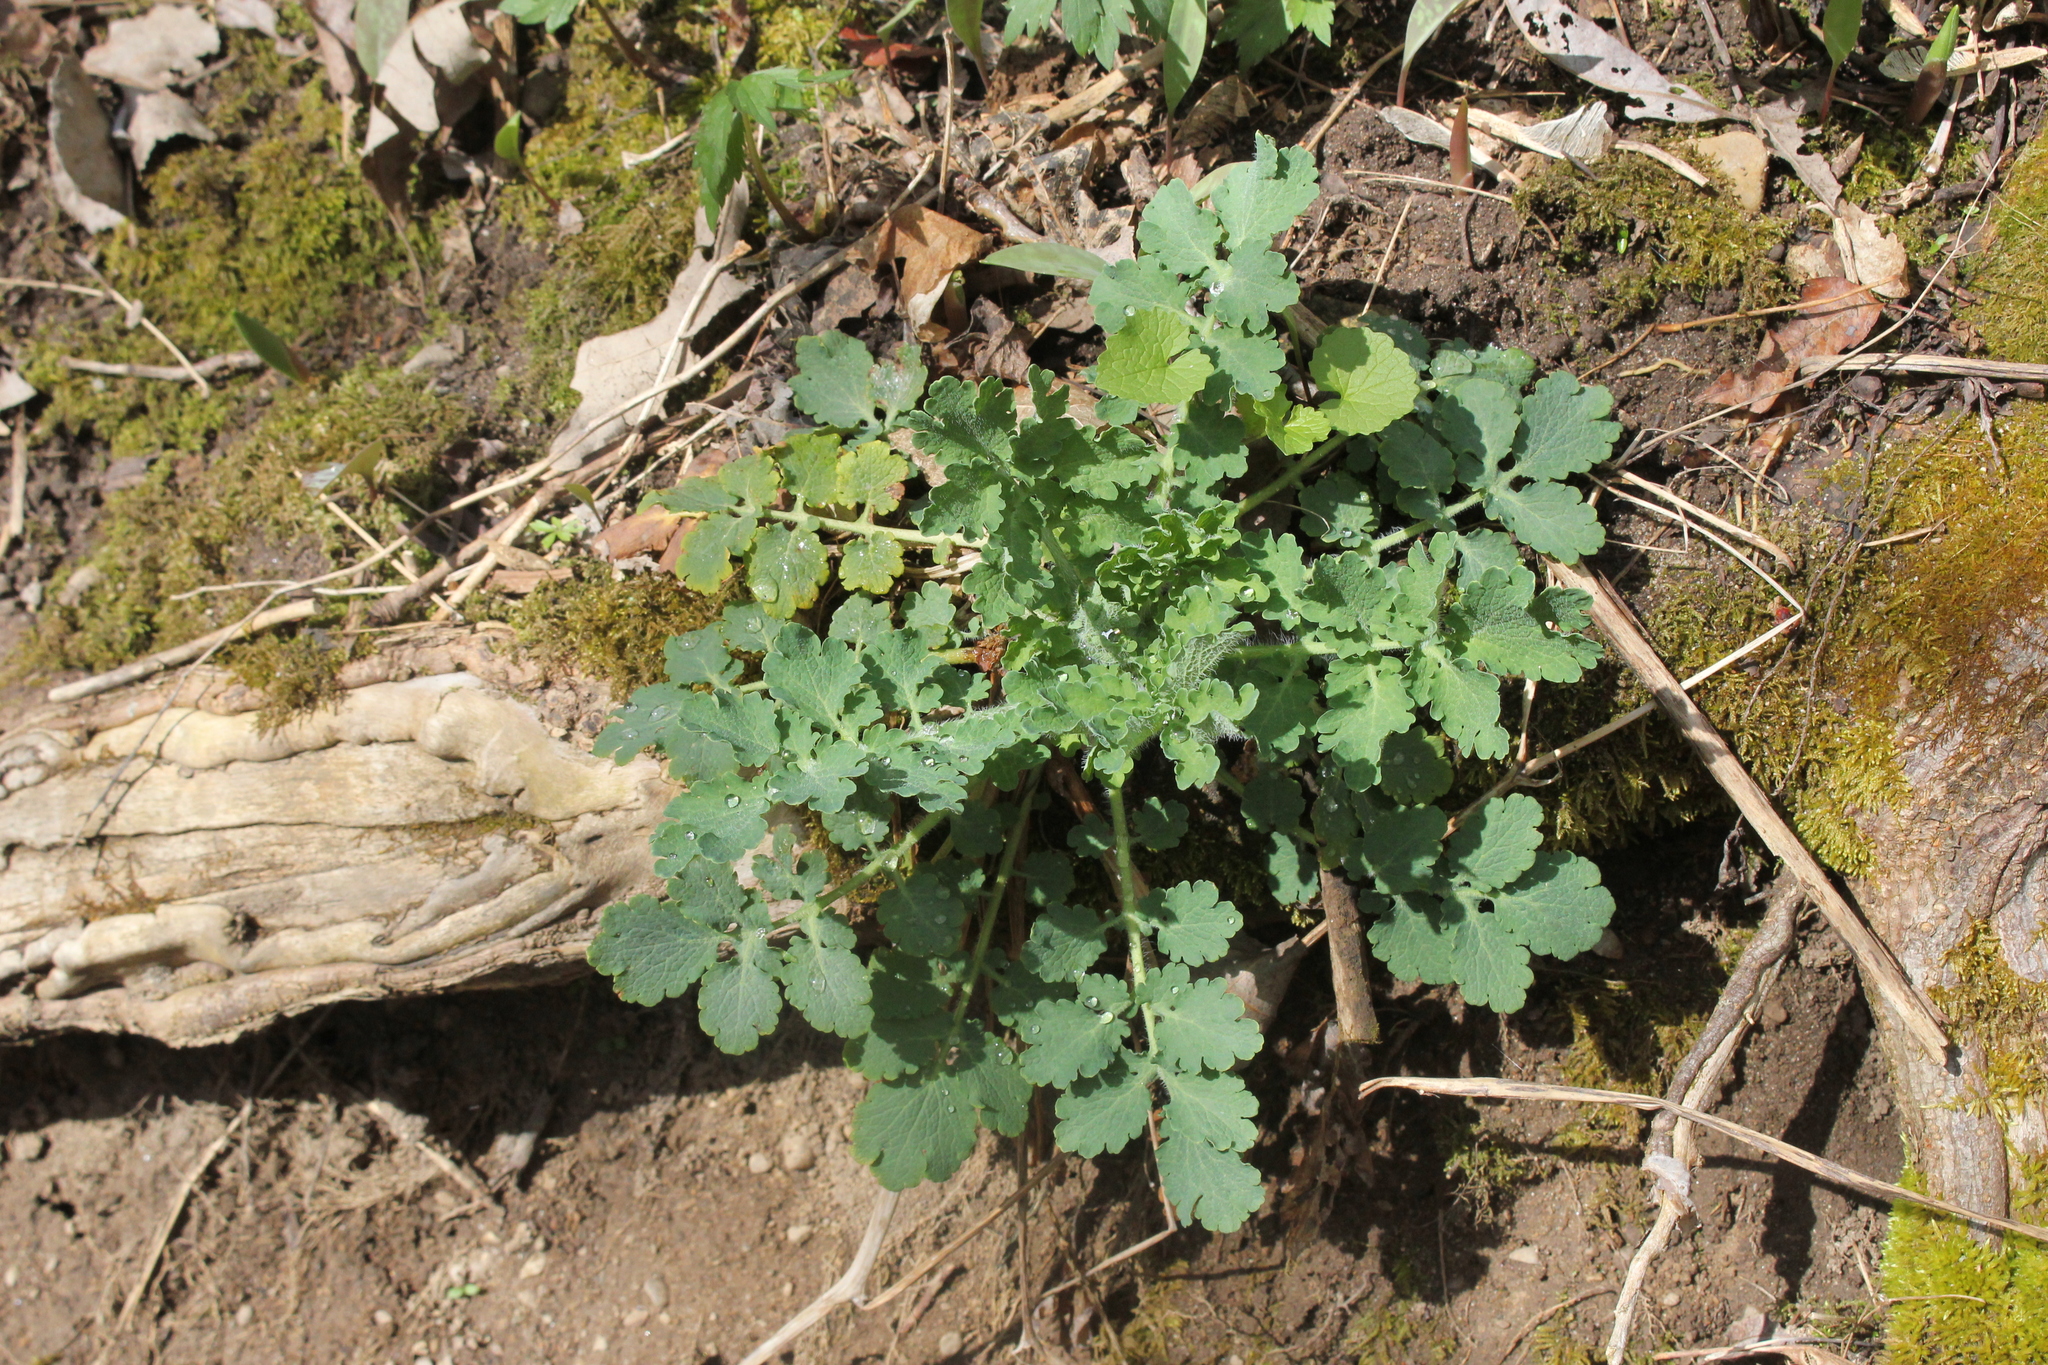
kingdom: Plantae
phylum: Tracheophyta
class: Magnoliopsida
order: Ranunculales
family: Papaveraceae
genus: Chelidonium
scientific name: Chelidonium majus
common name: Greater celandine
